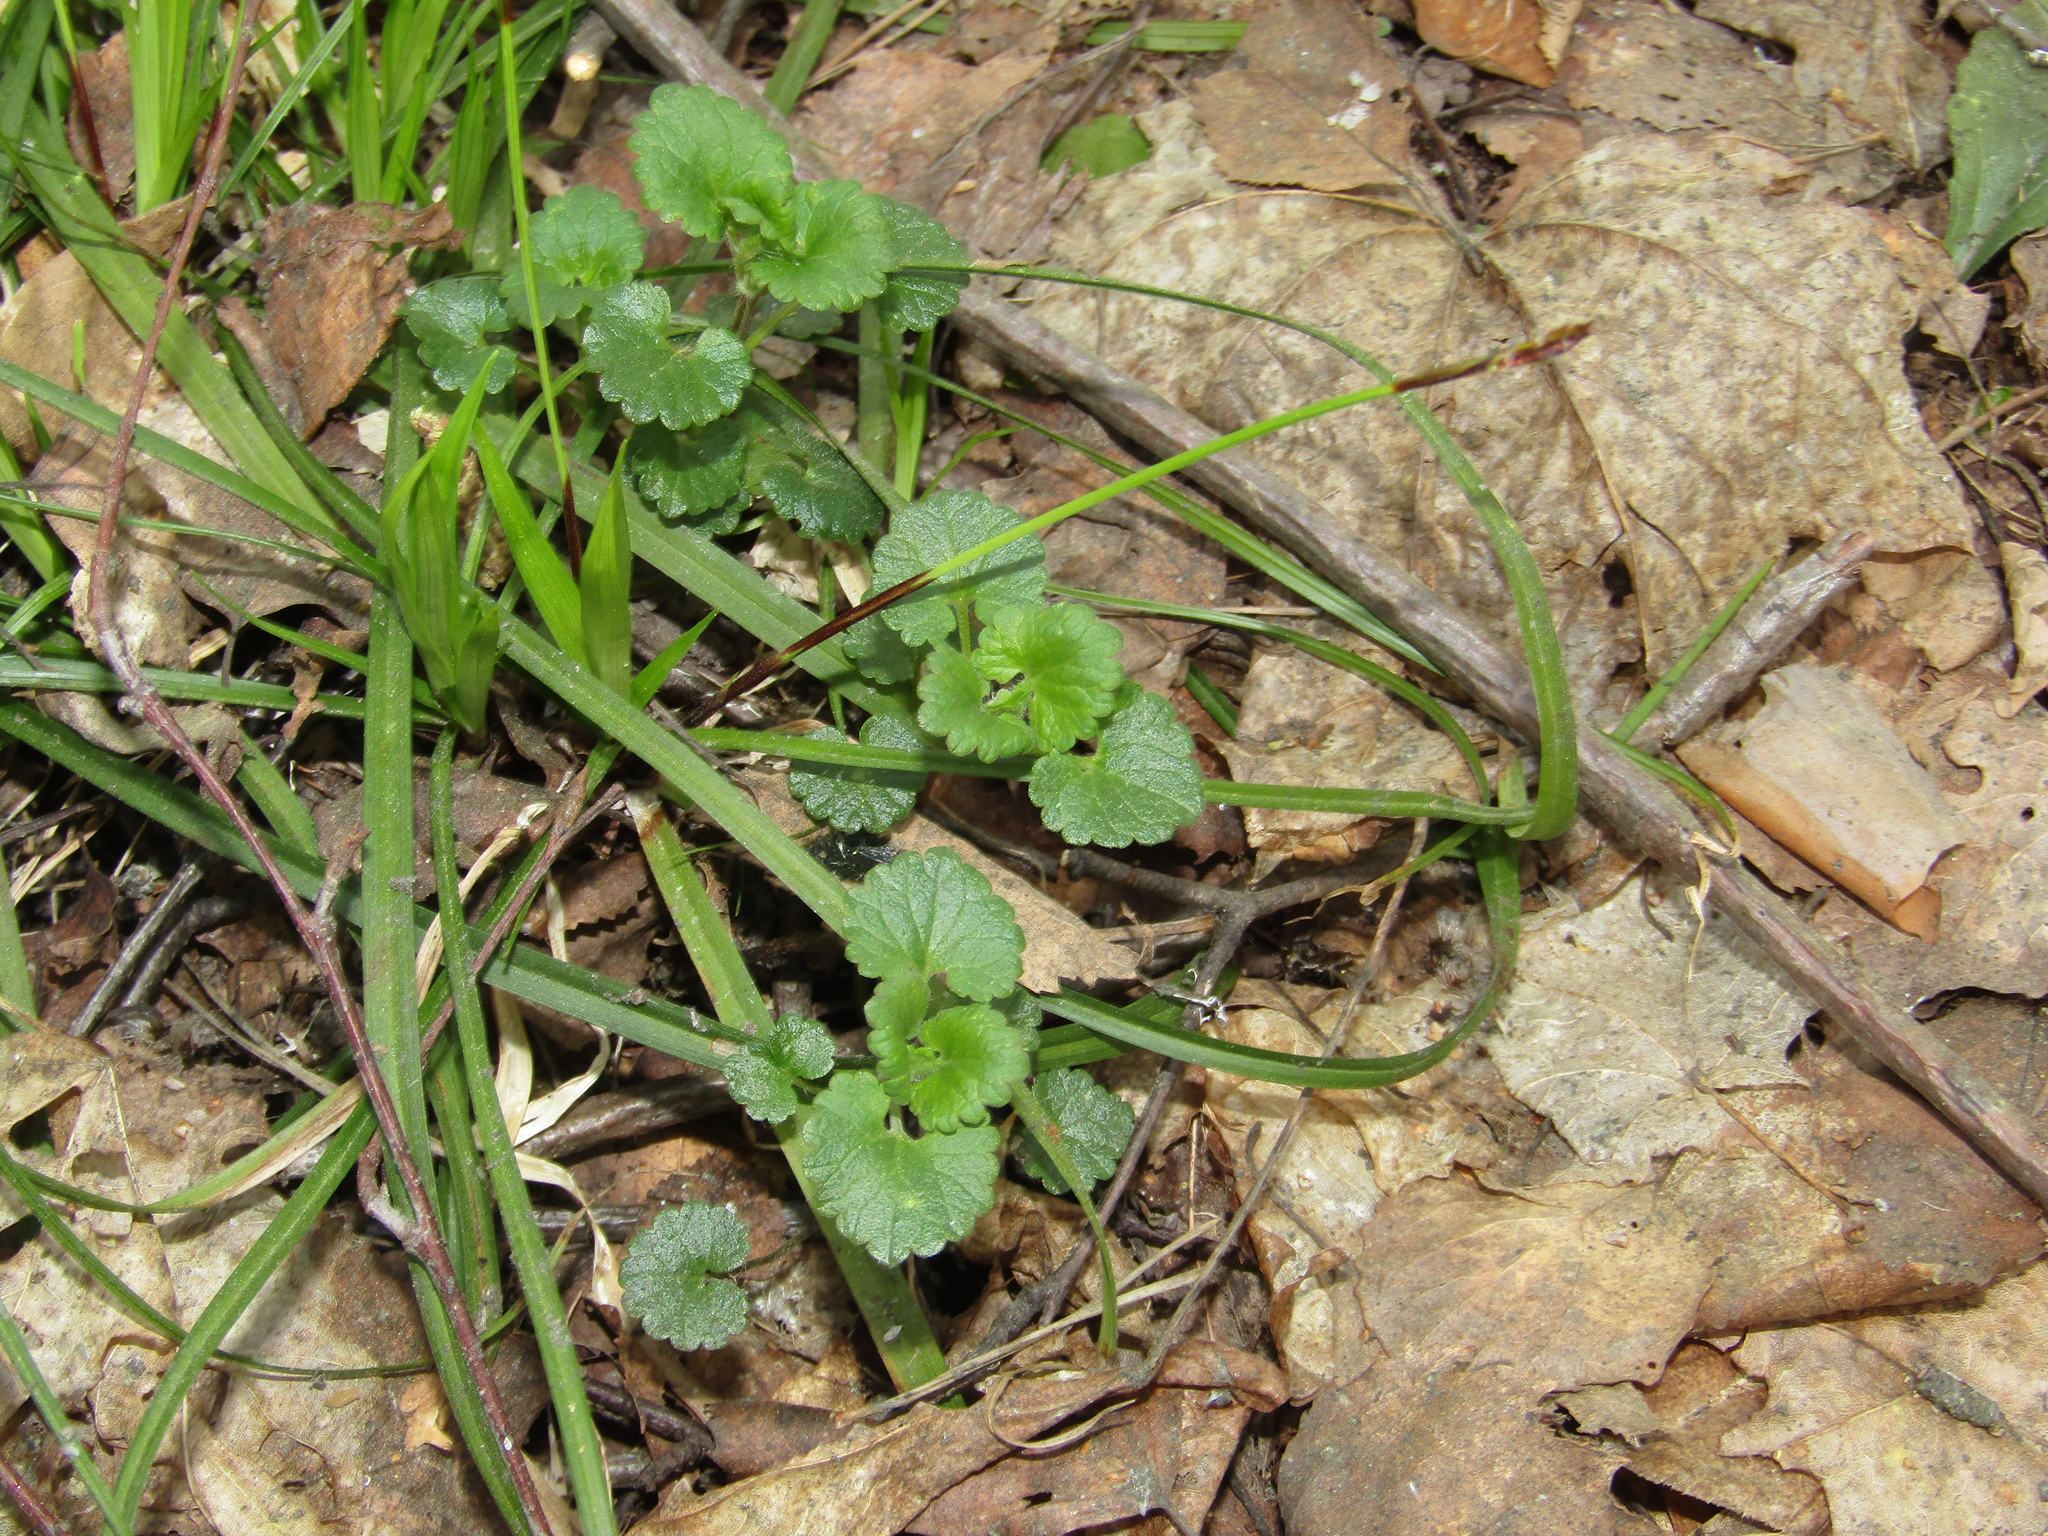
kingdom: Plantae
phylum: Tracheophyta
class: Magnoliopsida
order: Lamiales
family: Lamiaceae
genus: Glechoma
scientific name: Glechoma hederacea
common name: Ground ivy
